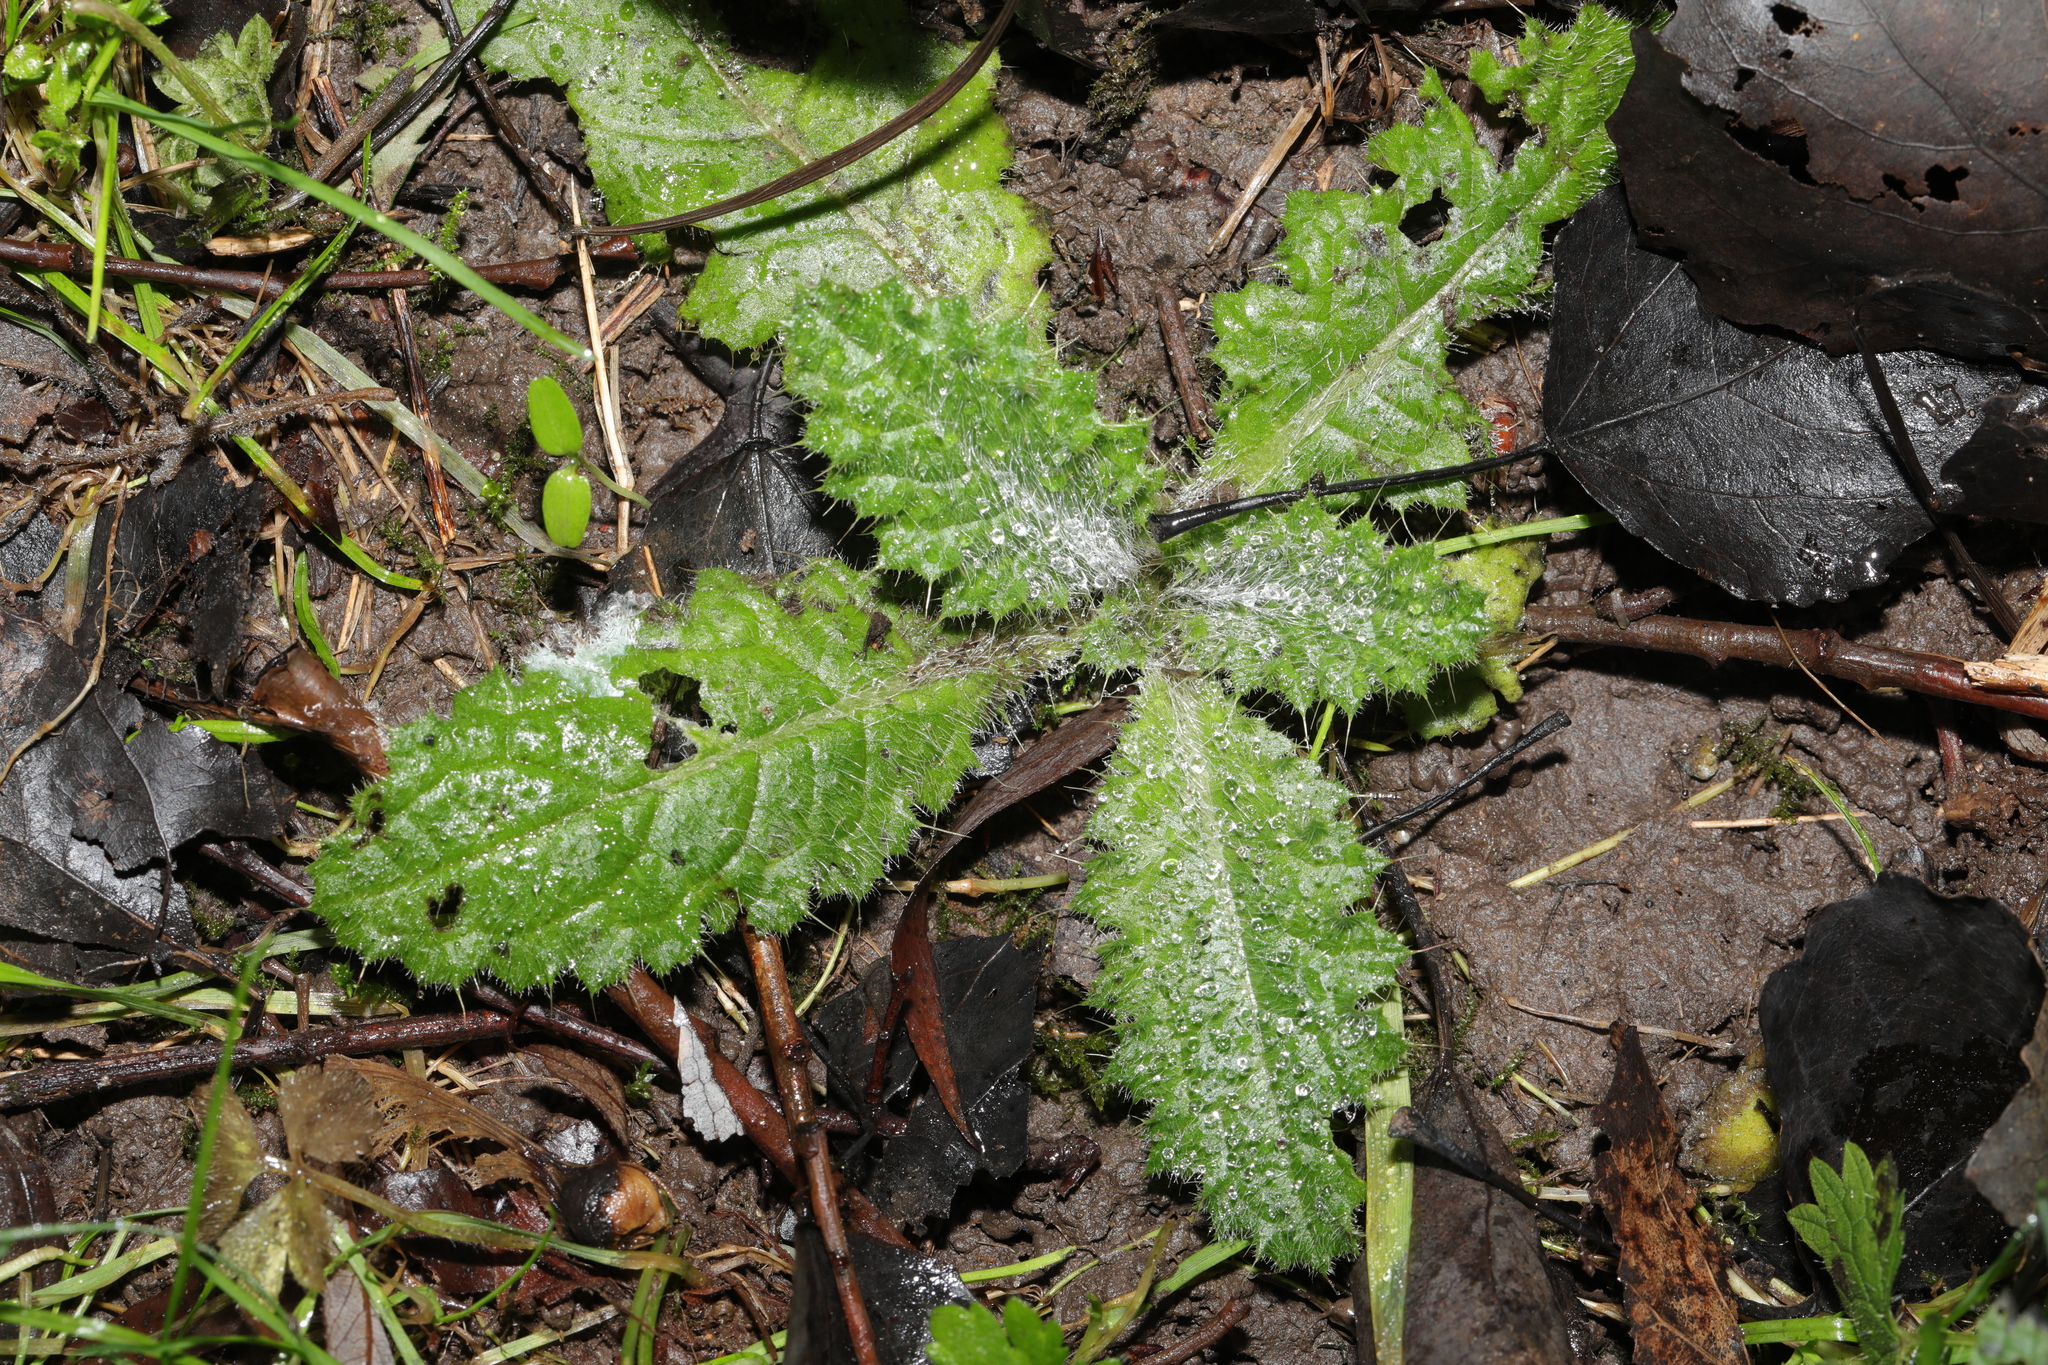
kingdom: Plantae
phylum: Tracheophyta
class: Magnoliopsida
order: Asterales
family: Asteraceae
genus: Cirsium
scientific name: Cirsium vulgare
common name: Bull thistle
